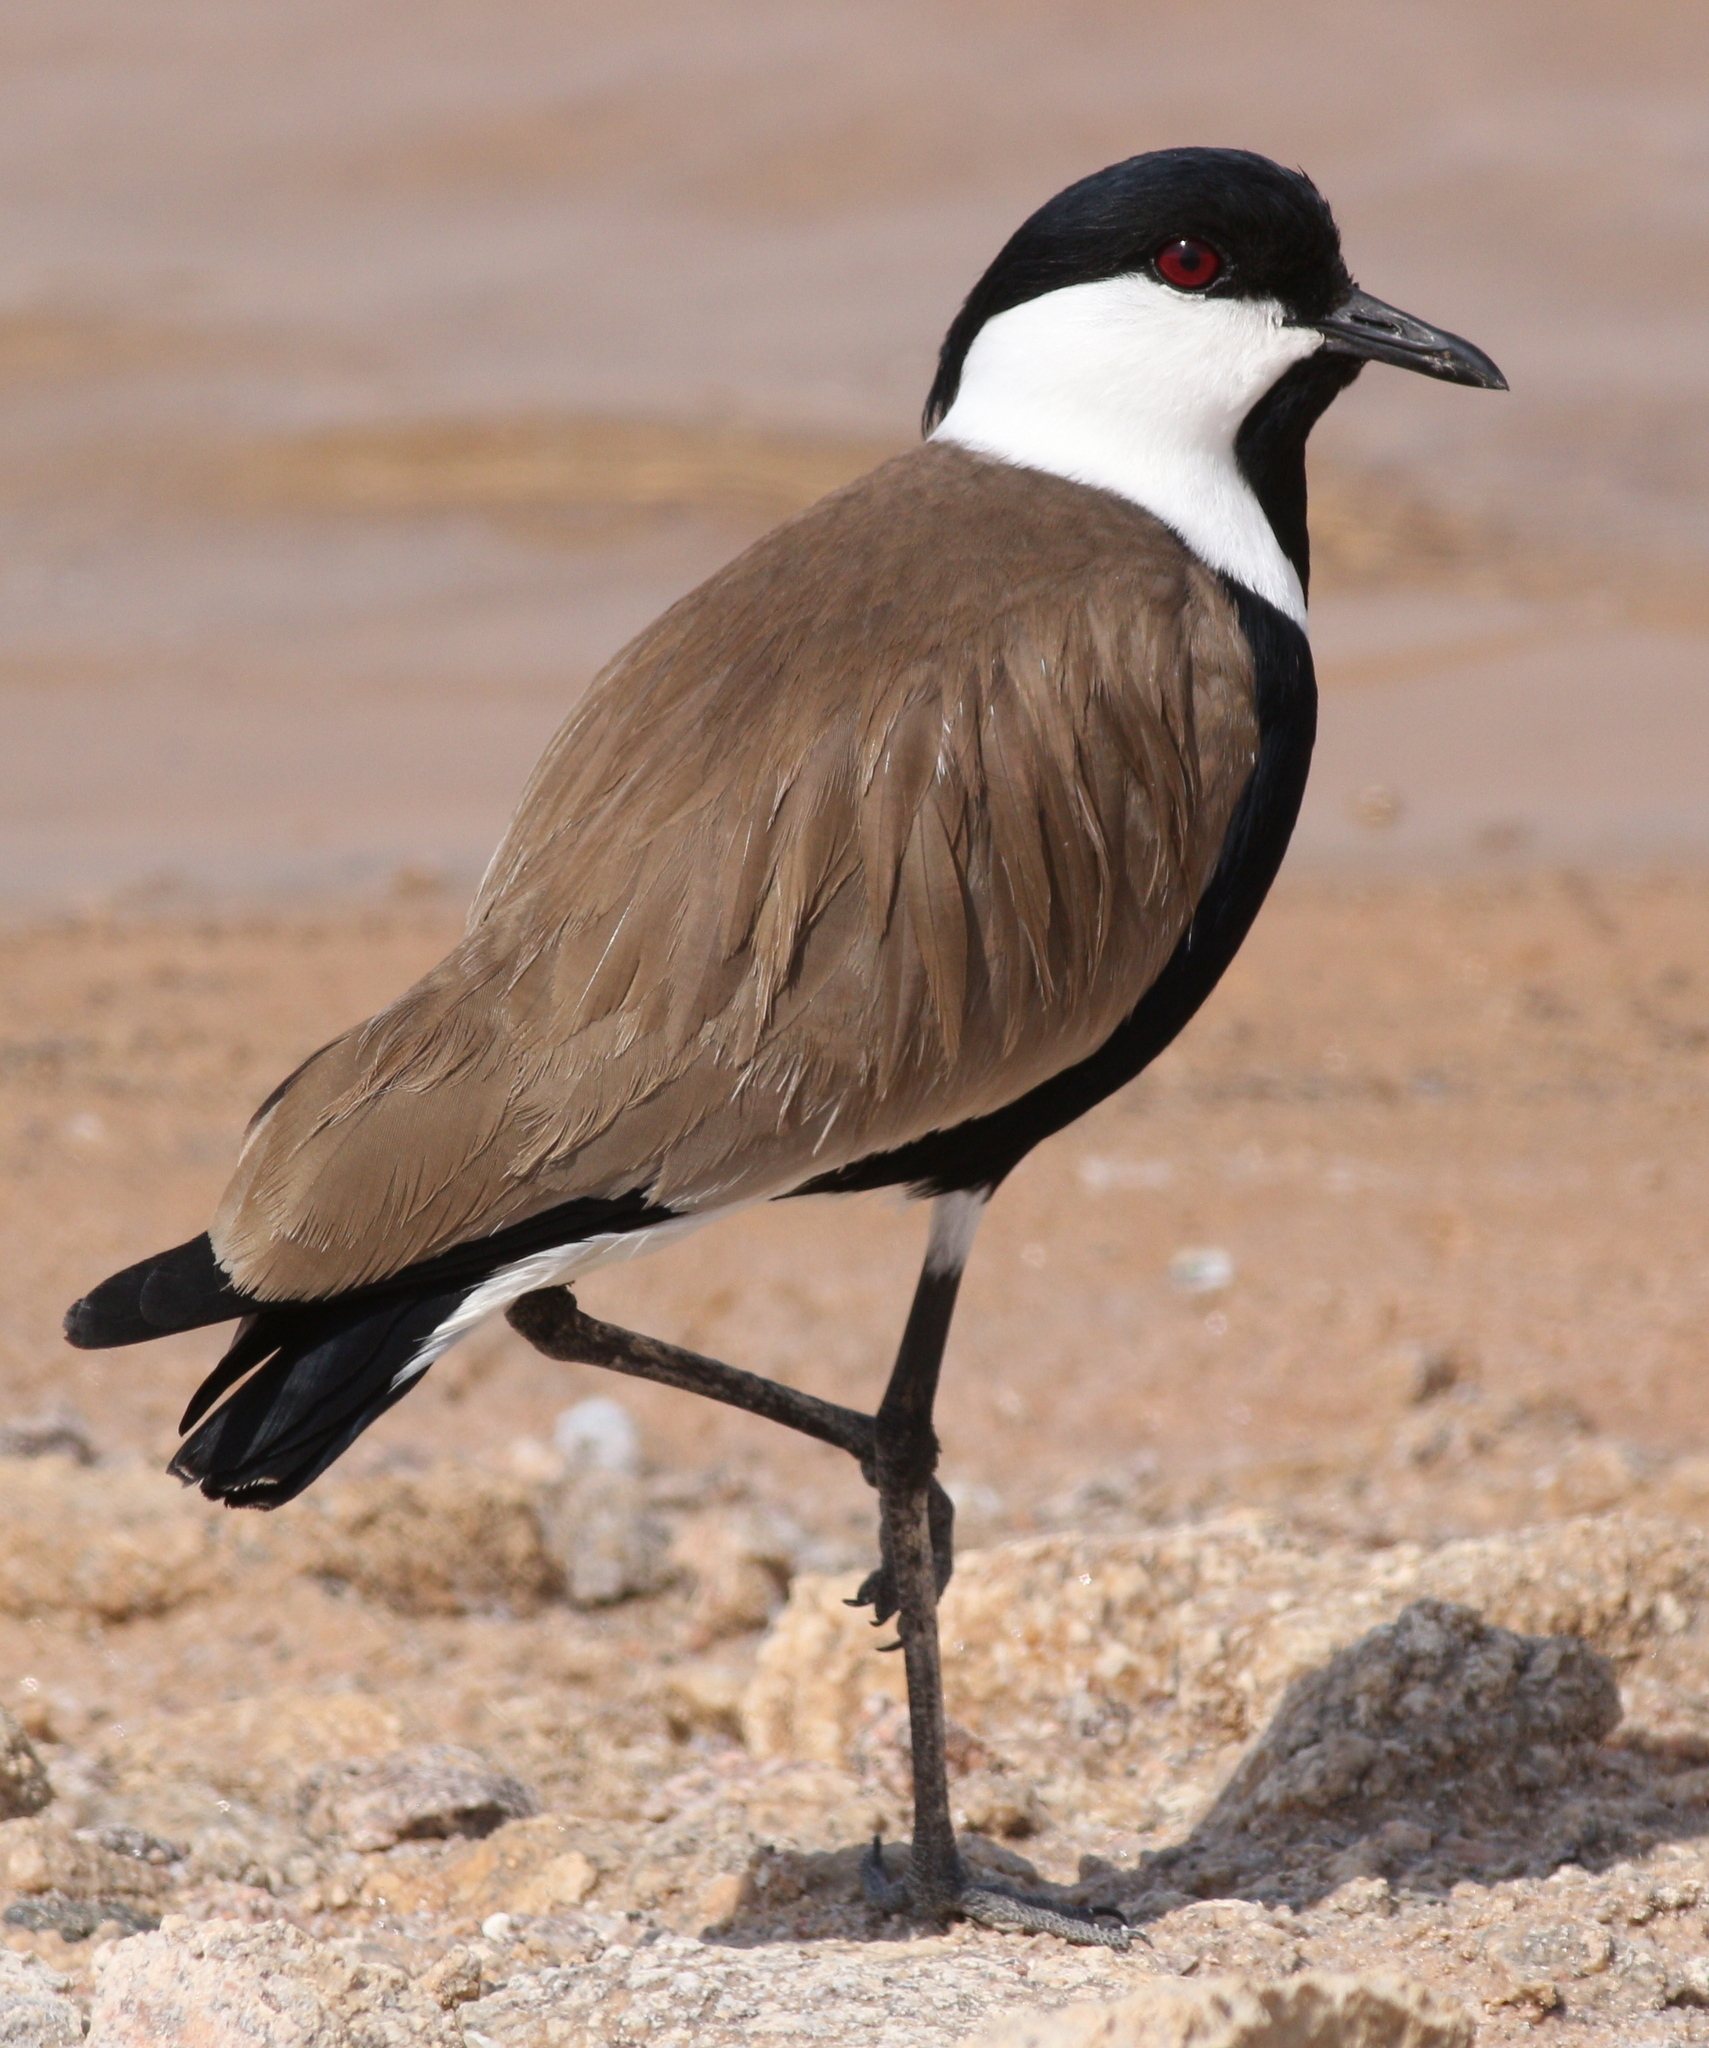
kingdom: Animalia
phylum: Chordata
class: Aves
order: Charadriiformes
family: Charadriidae
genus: Vanellus
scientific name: Vanellus spinosus
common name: Spur-winged lapwing
